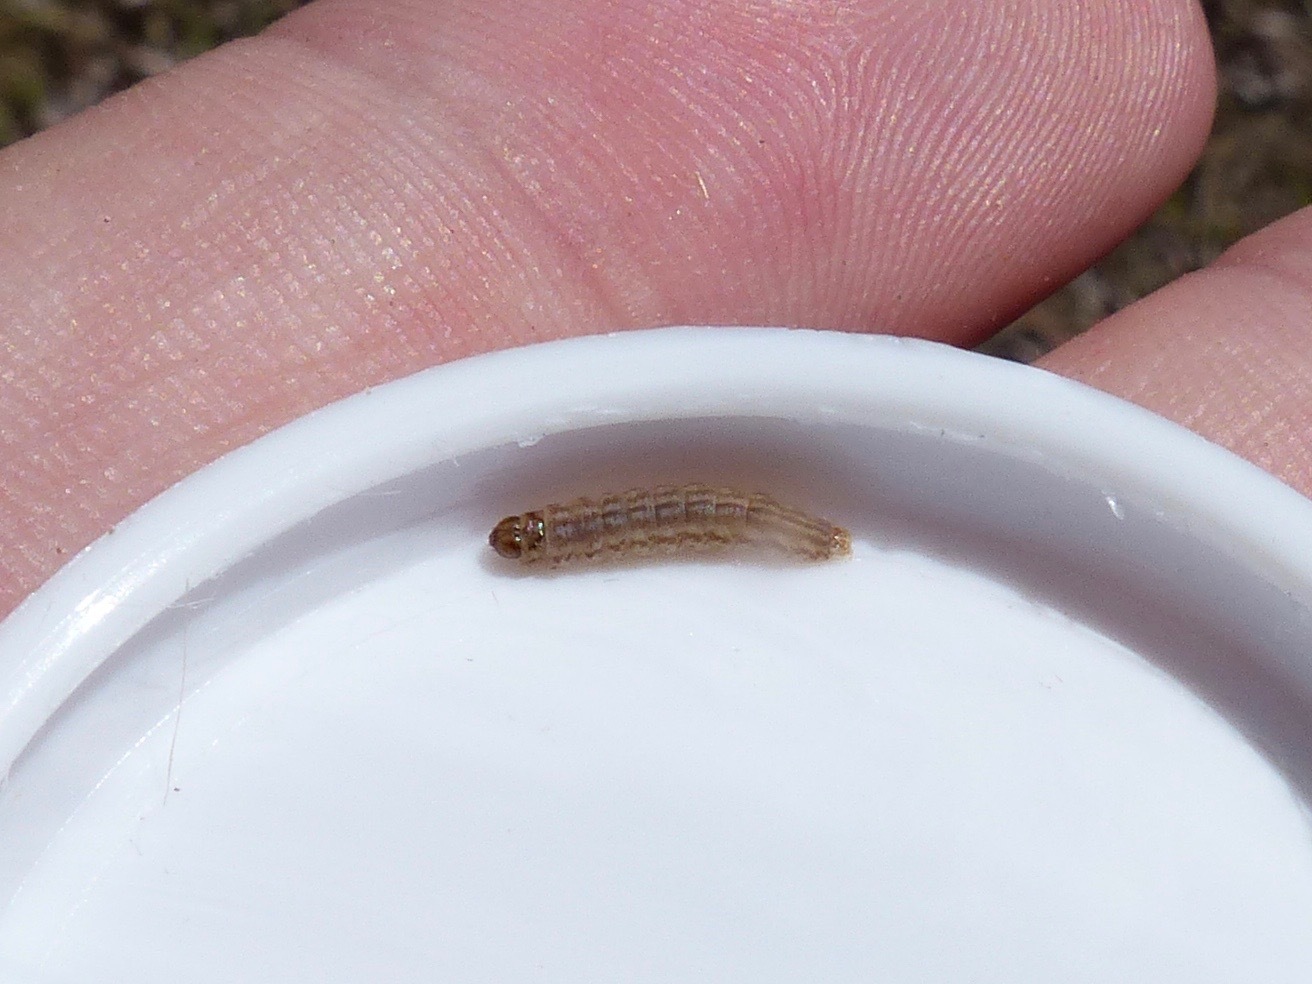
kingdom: Animalia
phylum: Arthropoda
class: Insecta
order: Lepidoptera
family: Cosmopterigidae
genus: Limnaecia
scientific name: Limnaecia phragmitella
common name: Bulrush cosmet
